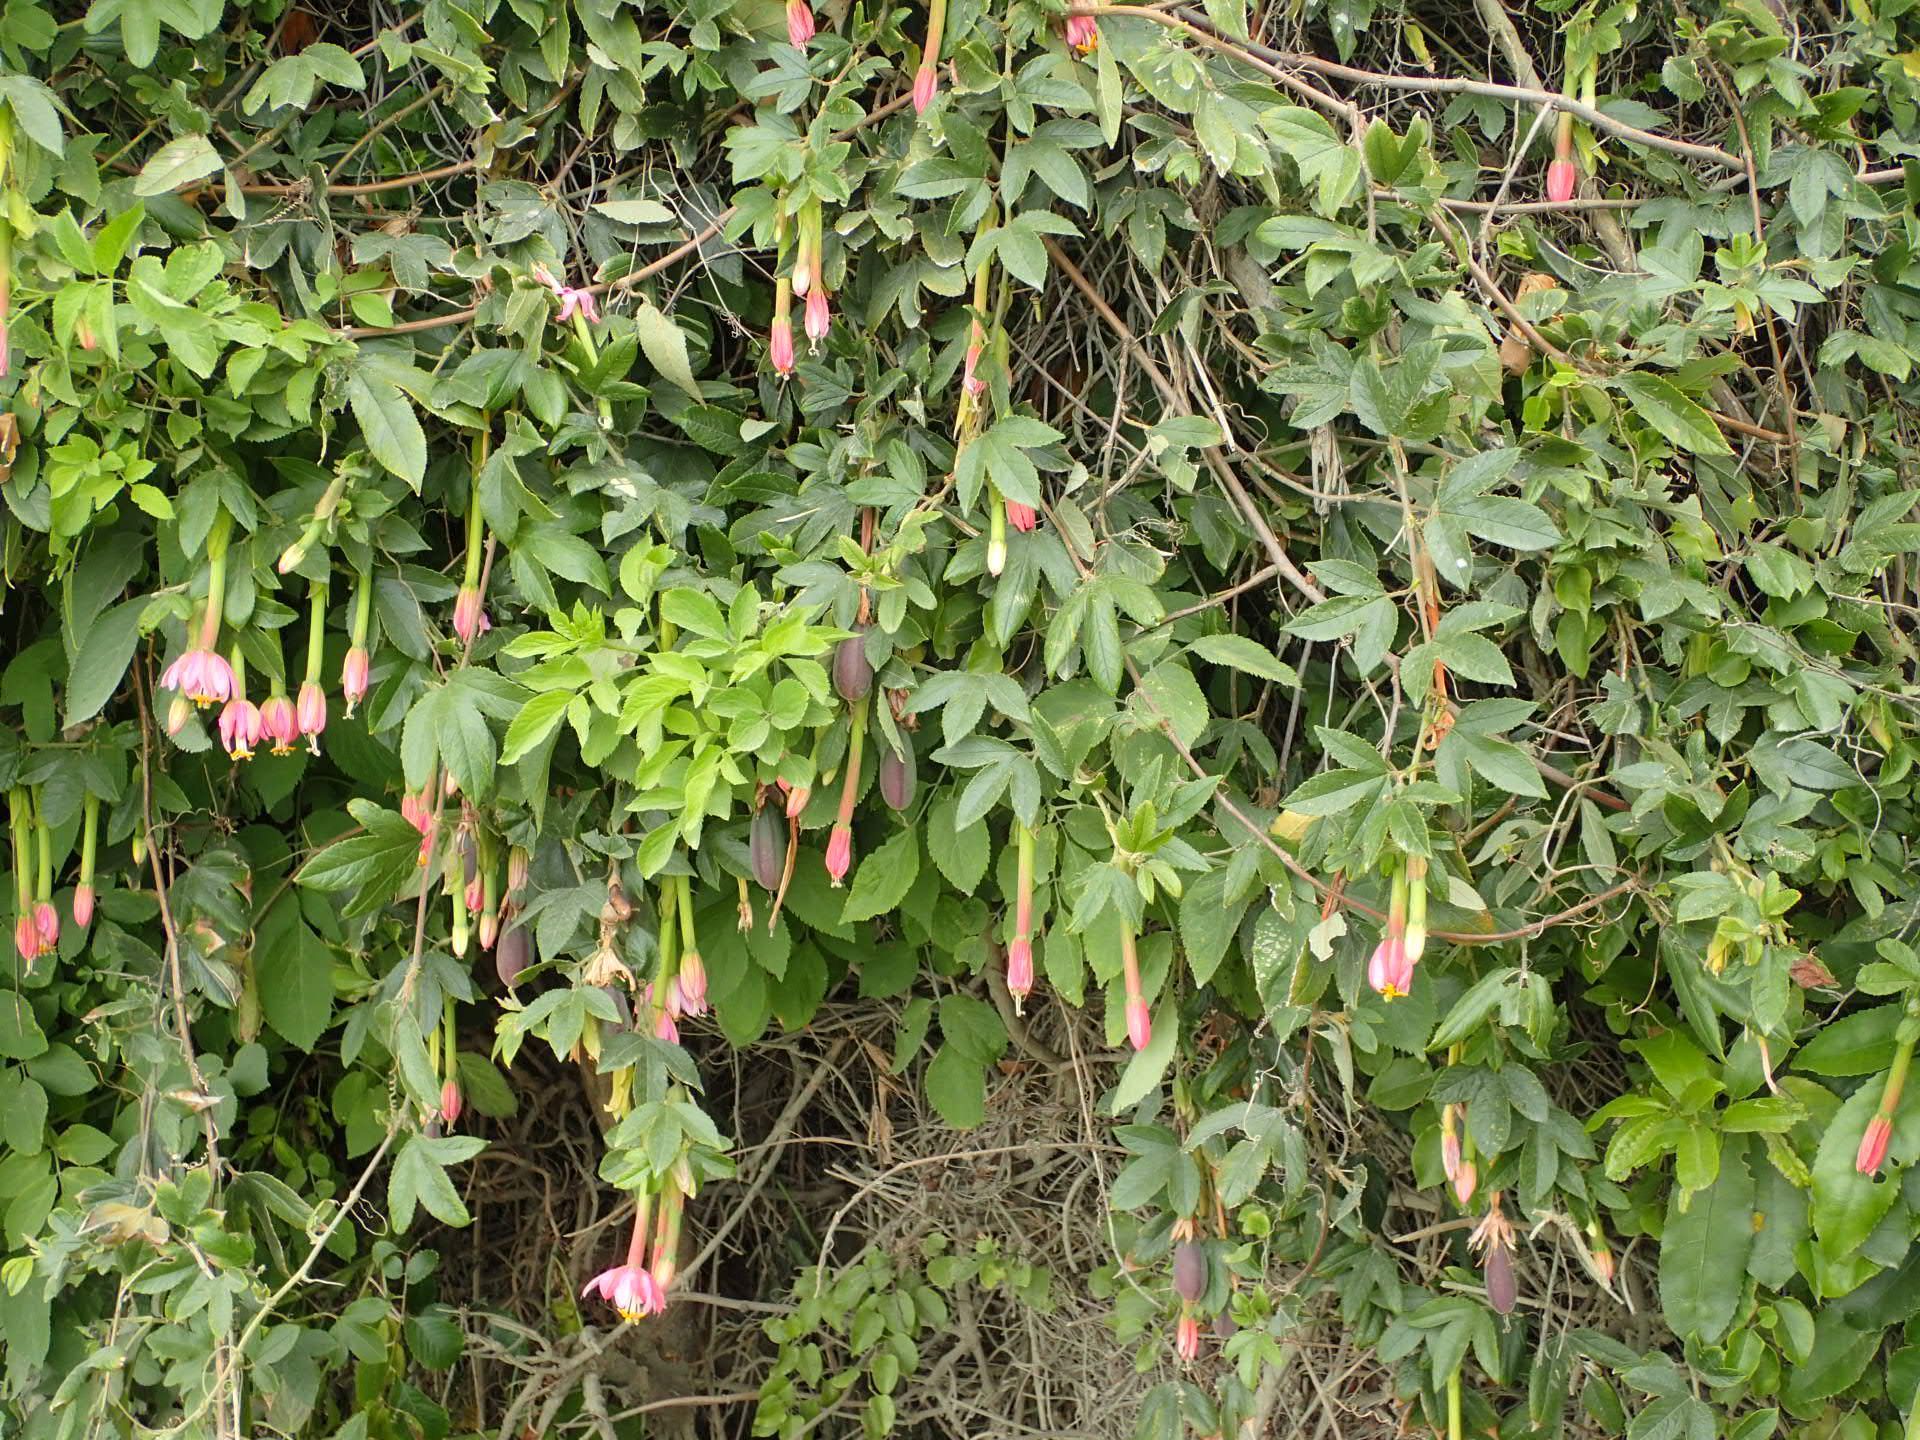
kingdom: Plantae
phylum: Tracheophyta
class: Magnoliopsida
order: Malpighiales
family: Passifloraceae
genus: Passiflora
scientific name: Passiflora tripartita
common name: Banana poka
